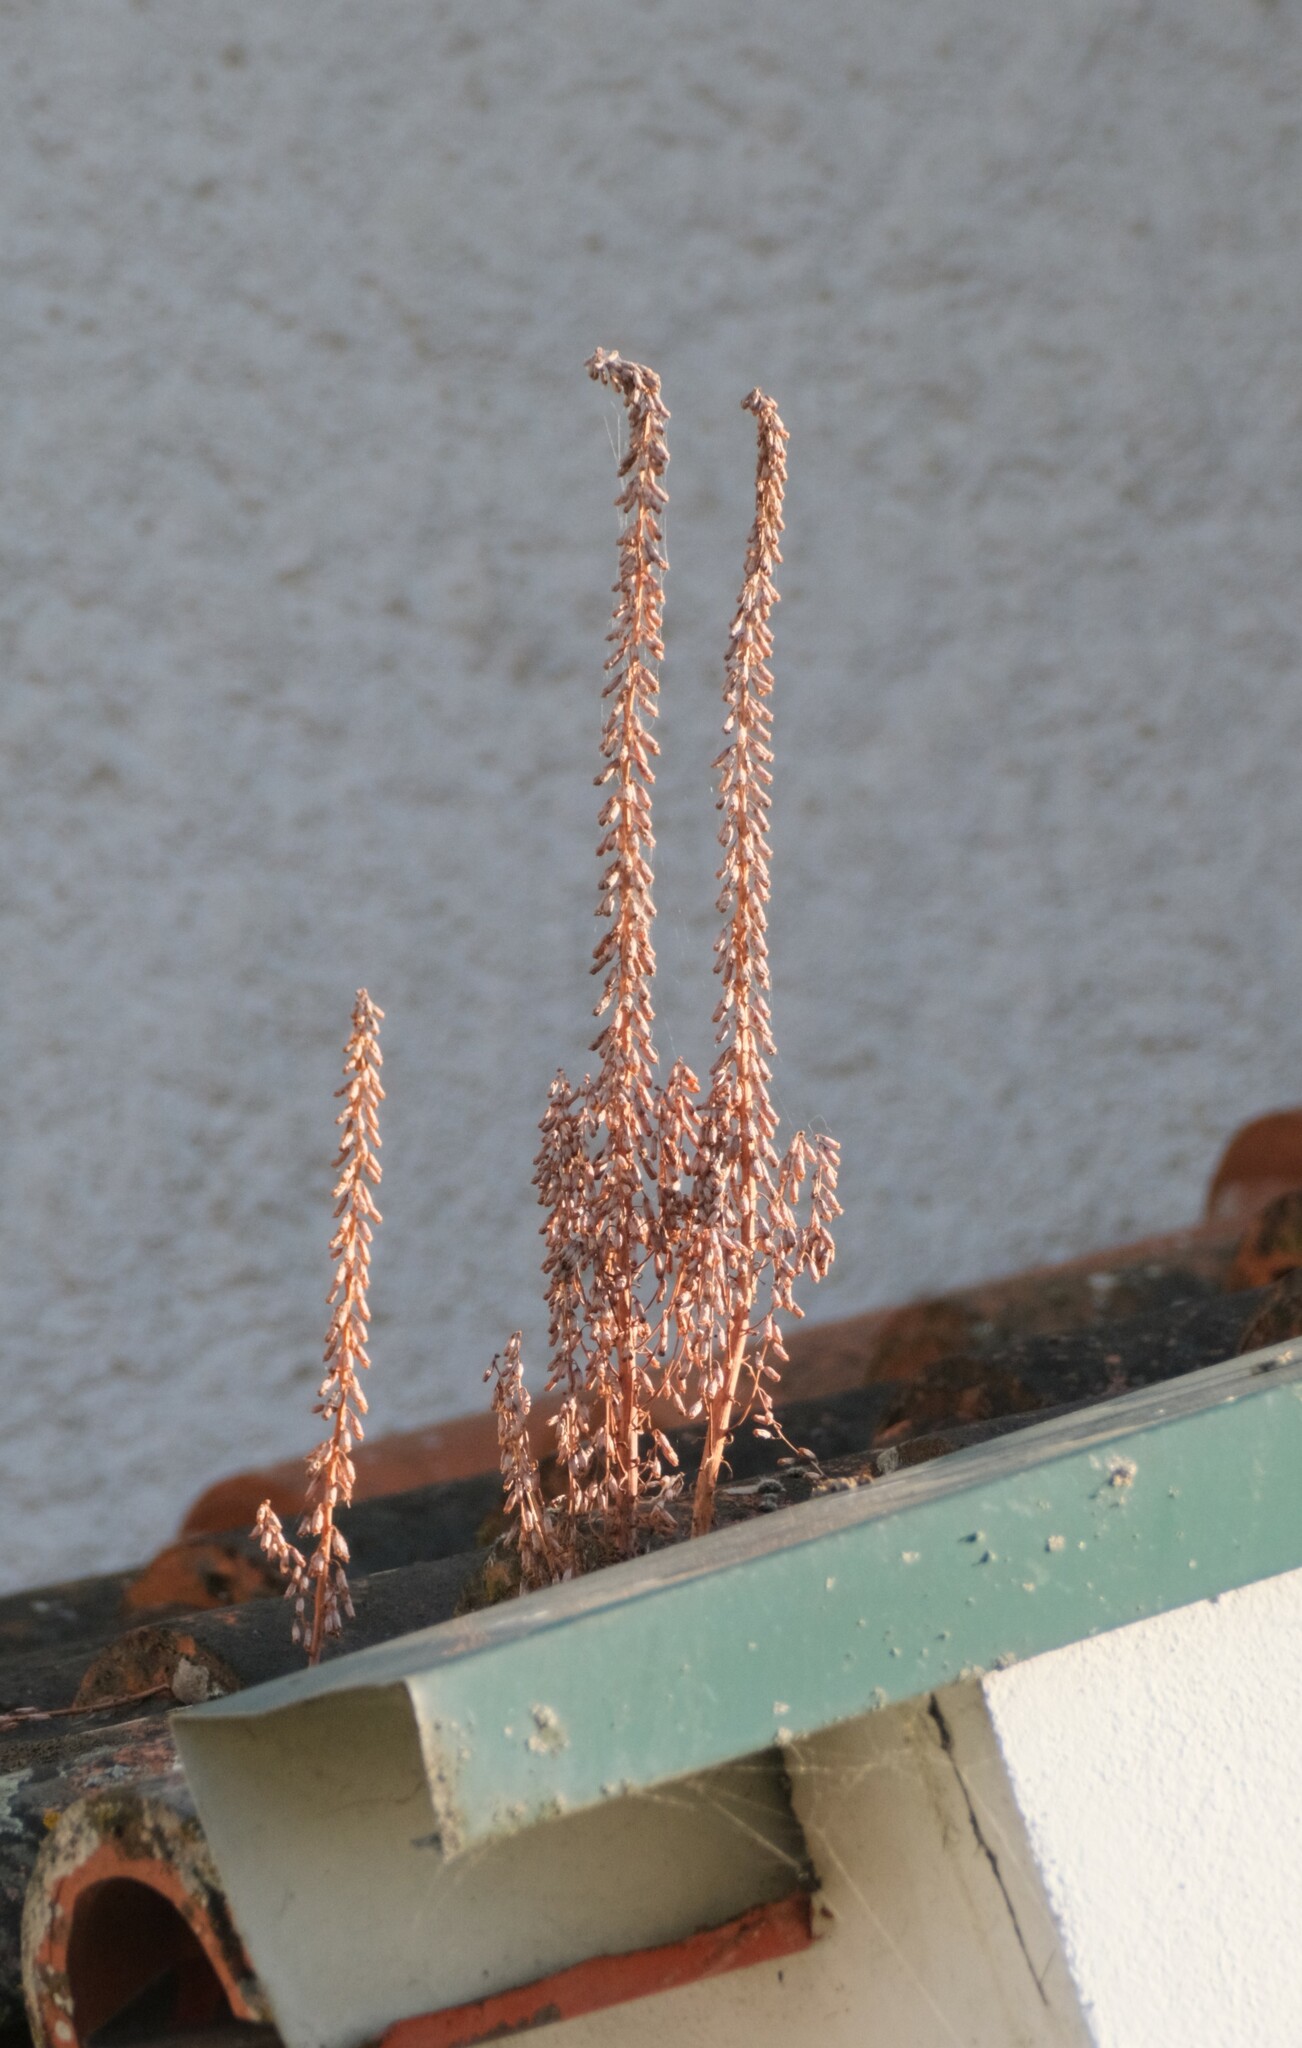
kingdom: Plantae
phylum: Tracheophyta
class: Magnoliopsida
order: Saxifragales
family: Crassulaceae
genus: Umbilicus
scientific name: Umbilicus rupestris
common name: Navelwort
